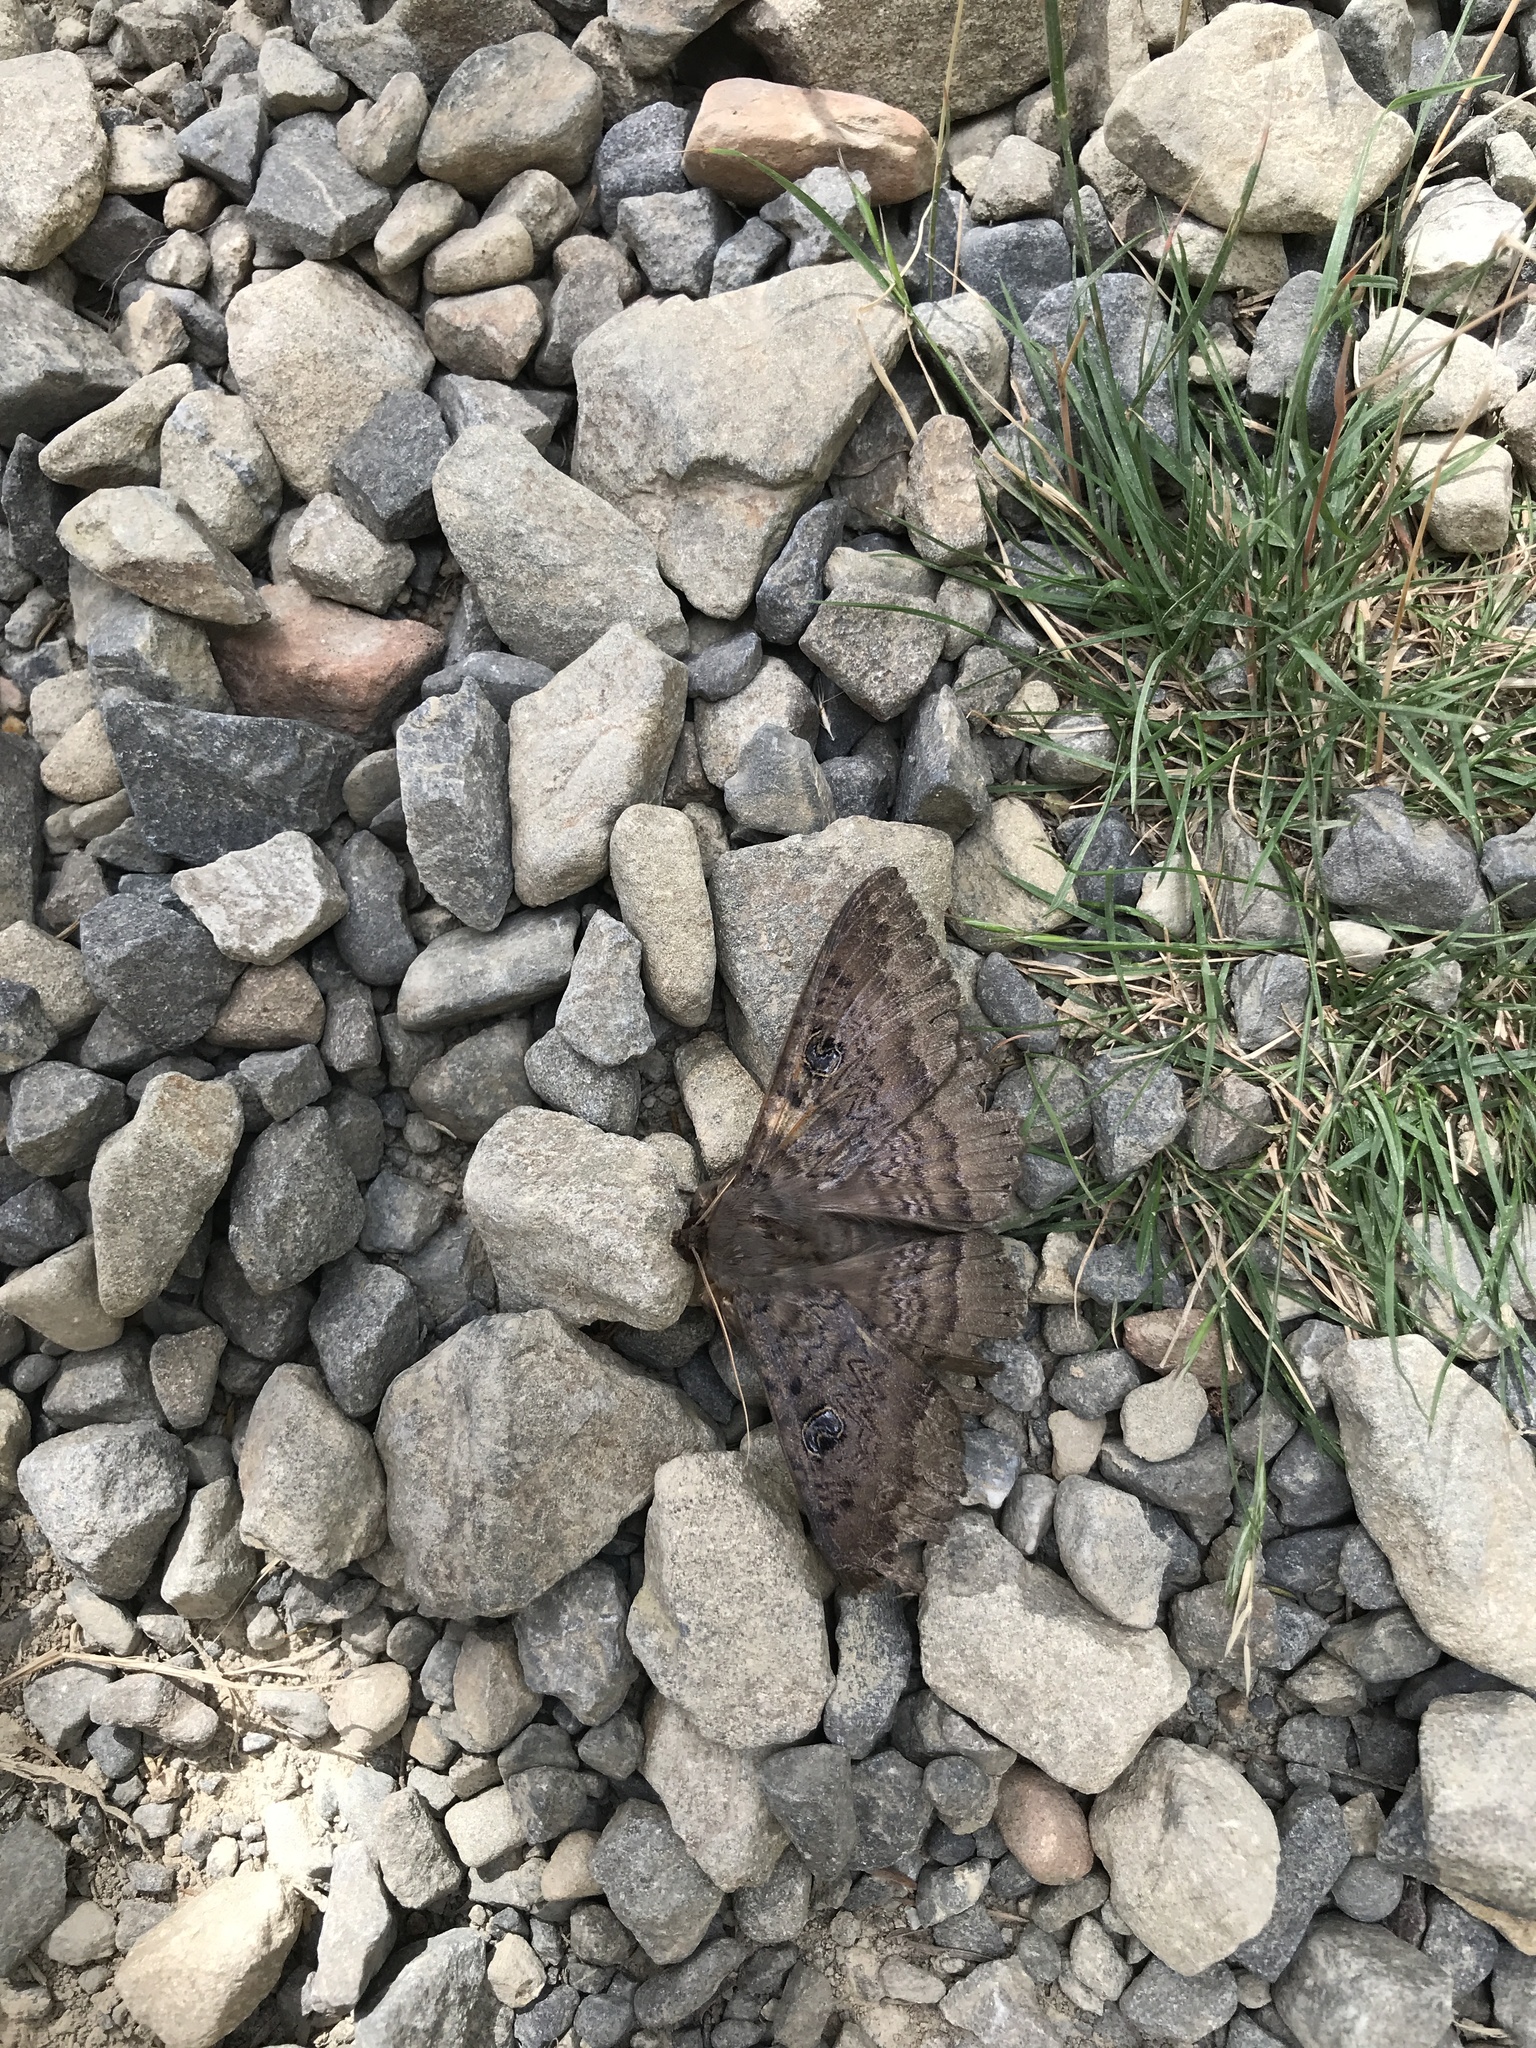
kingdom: Animalia
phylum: Arthropoda
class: Insecta
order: Lepidoptera
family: Erebidae
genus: Dasypodia
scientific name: Dasypodia cymatodes
